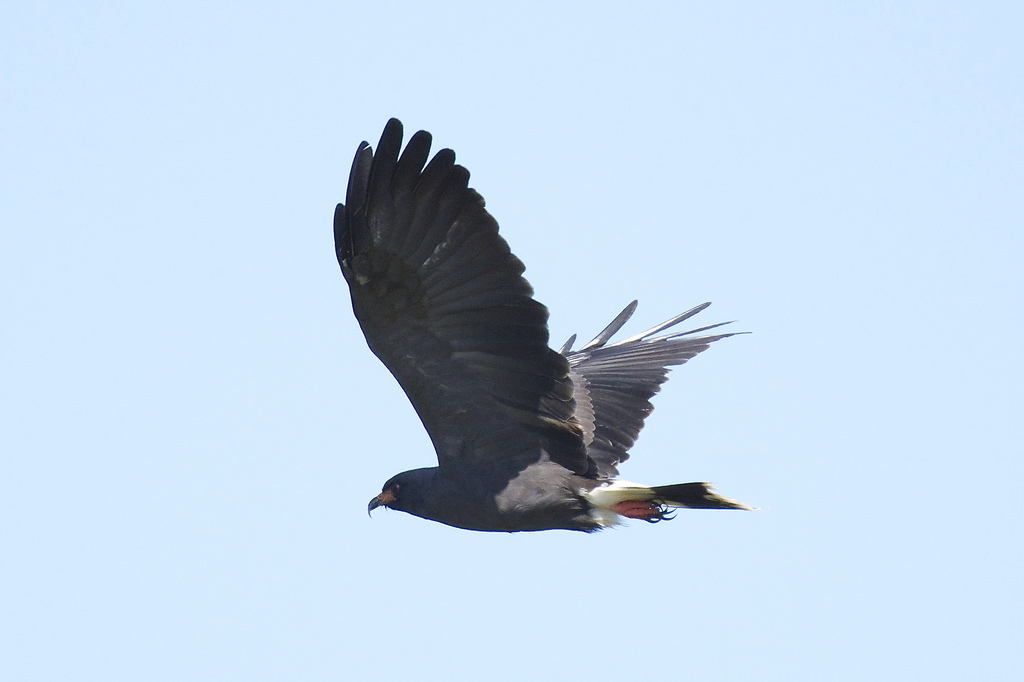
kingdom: Animalia
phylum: Chordata
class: Aves
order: Accipitriformes
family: Accipitridae
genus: Rostrhamus
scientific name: Rostrhamus sociabilis
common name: Snail kite
